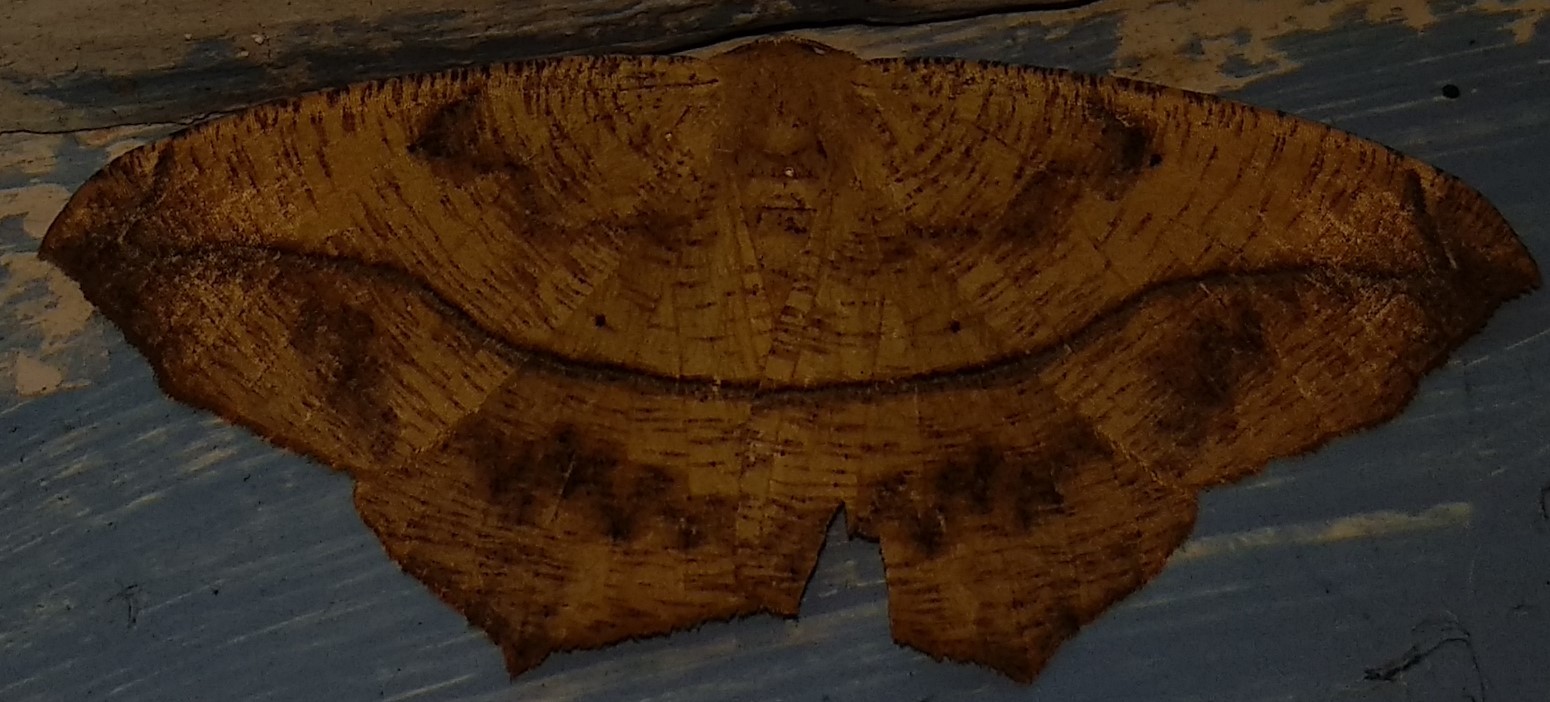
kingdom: Animalia
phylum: Arthropoda
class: Insecta
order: Lepidoptera
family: Geometridae
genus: Prochoerodes
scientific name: Prochoerodes lineola
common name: Large maple spanworm
